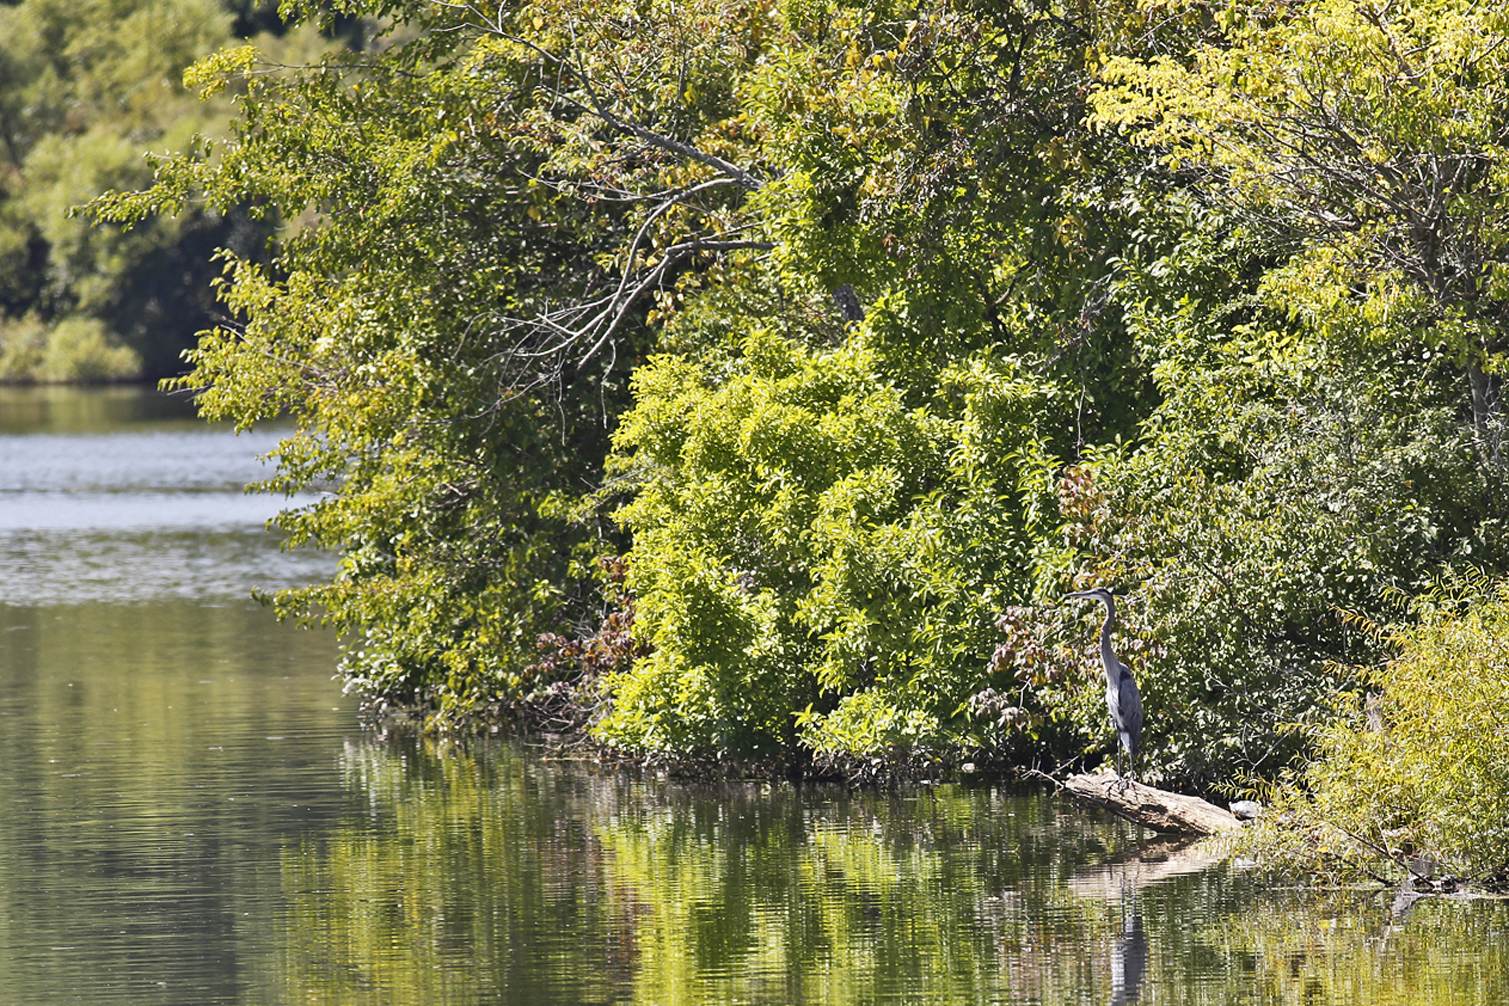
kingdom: Animalia
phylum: Chordata
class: Aves
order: Pelecaniformes
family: Ardeidae
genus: Ardea
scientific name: Ardea herodias
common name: Great blue heron
